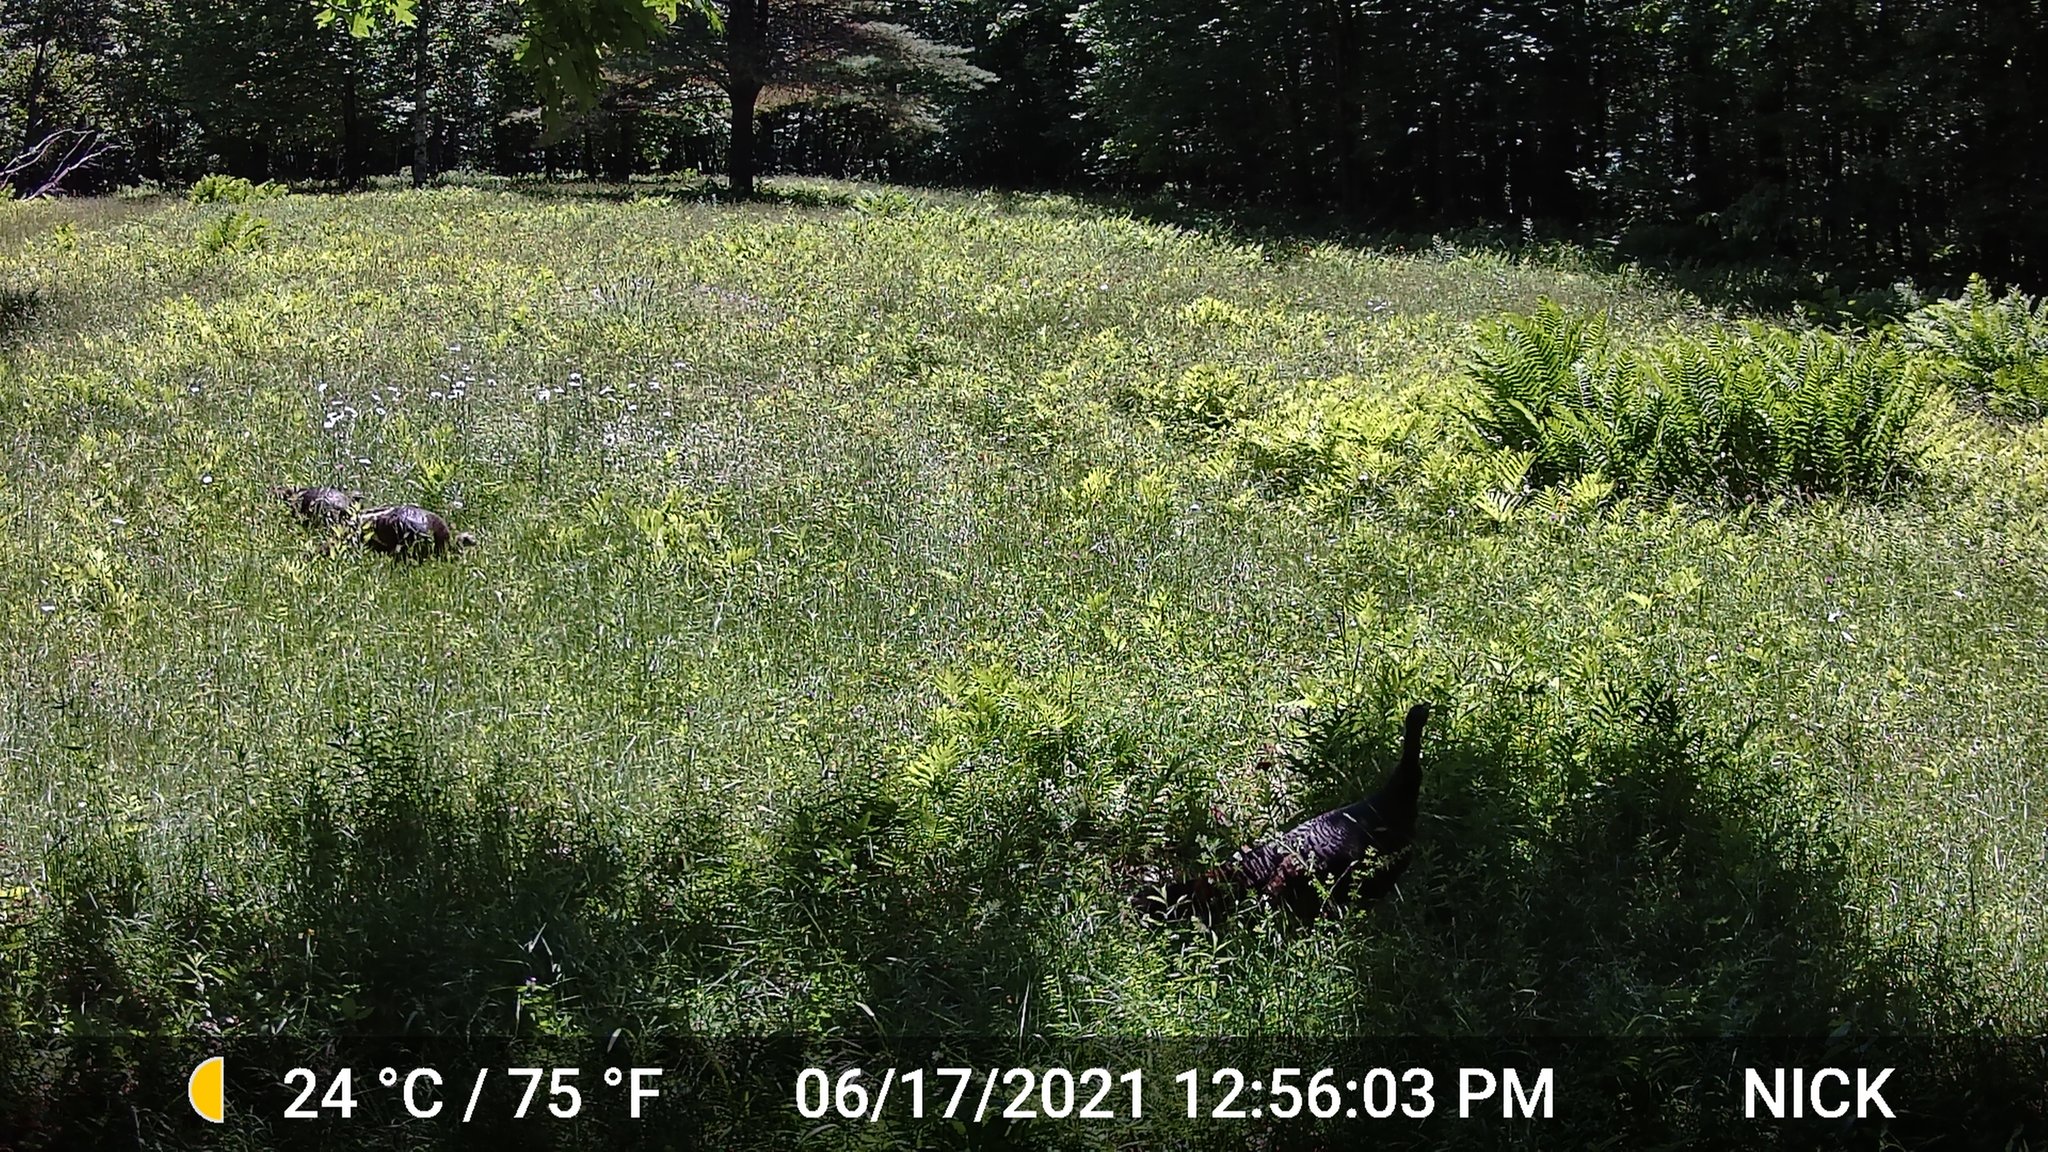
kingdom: Animalia
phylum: Chordata
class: Aves
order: Galliformes
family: Phasianidae
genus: Meleagris
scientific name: Meleagris gallopavo
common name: Wild turkey
